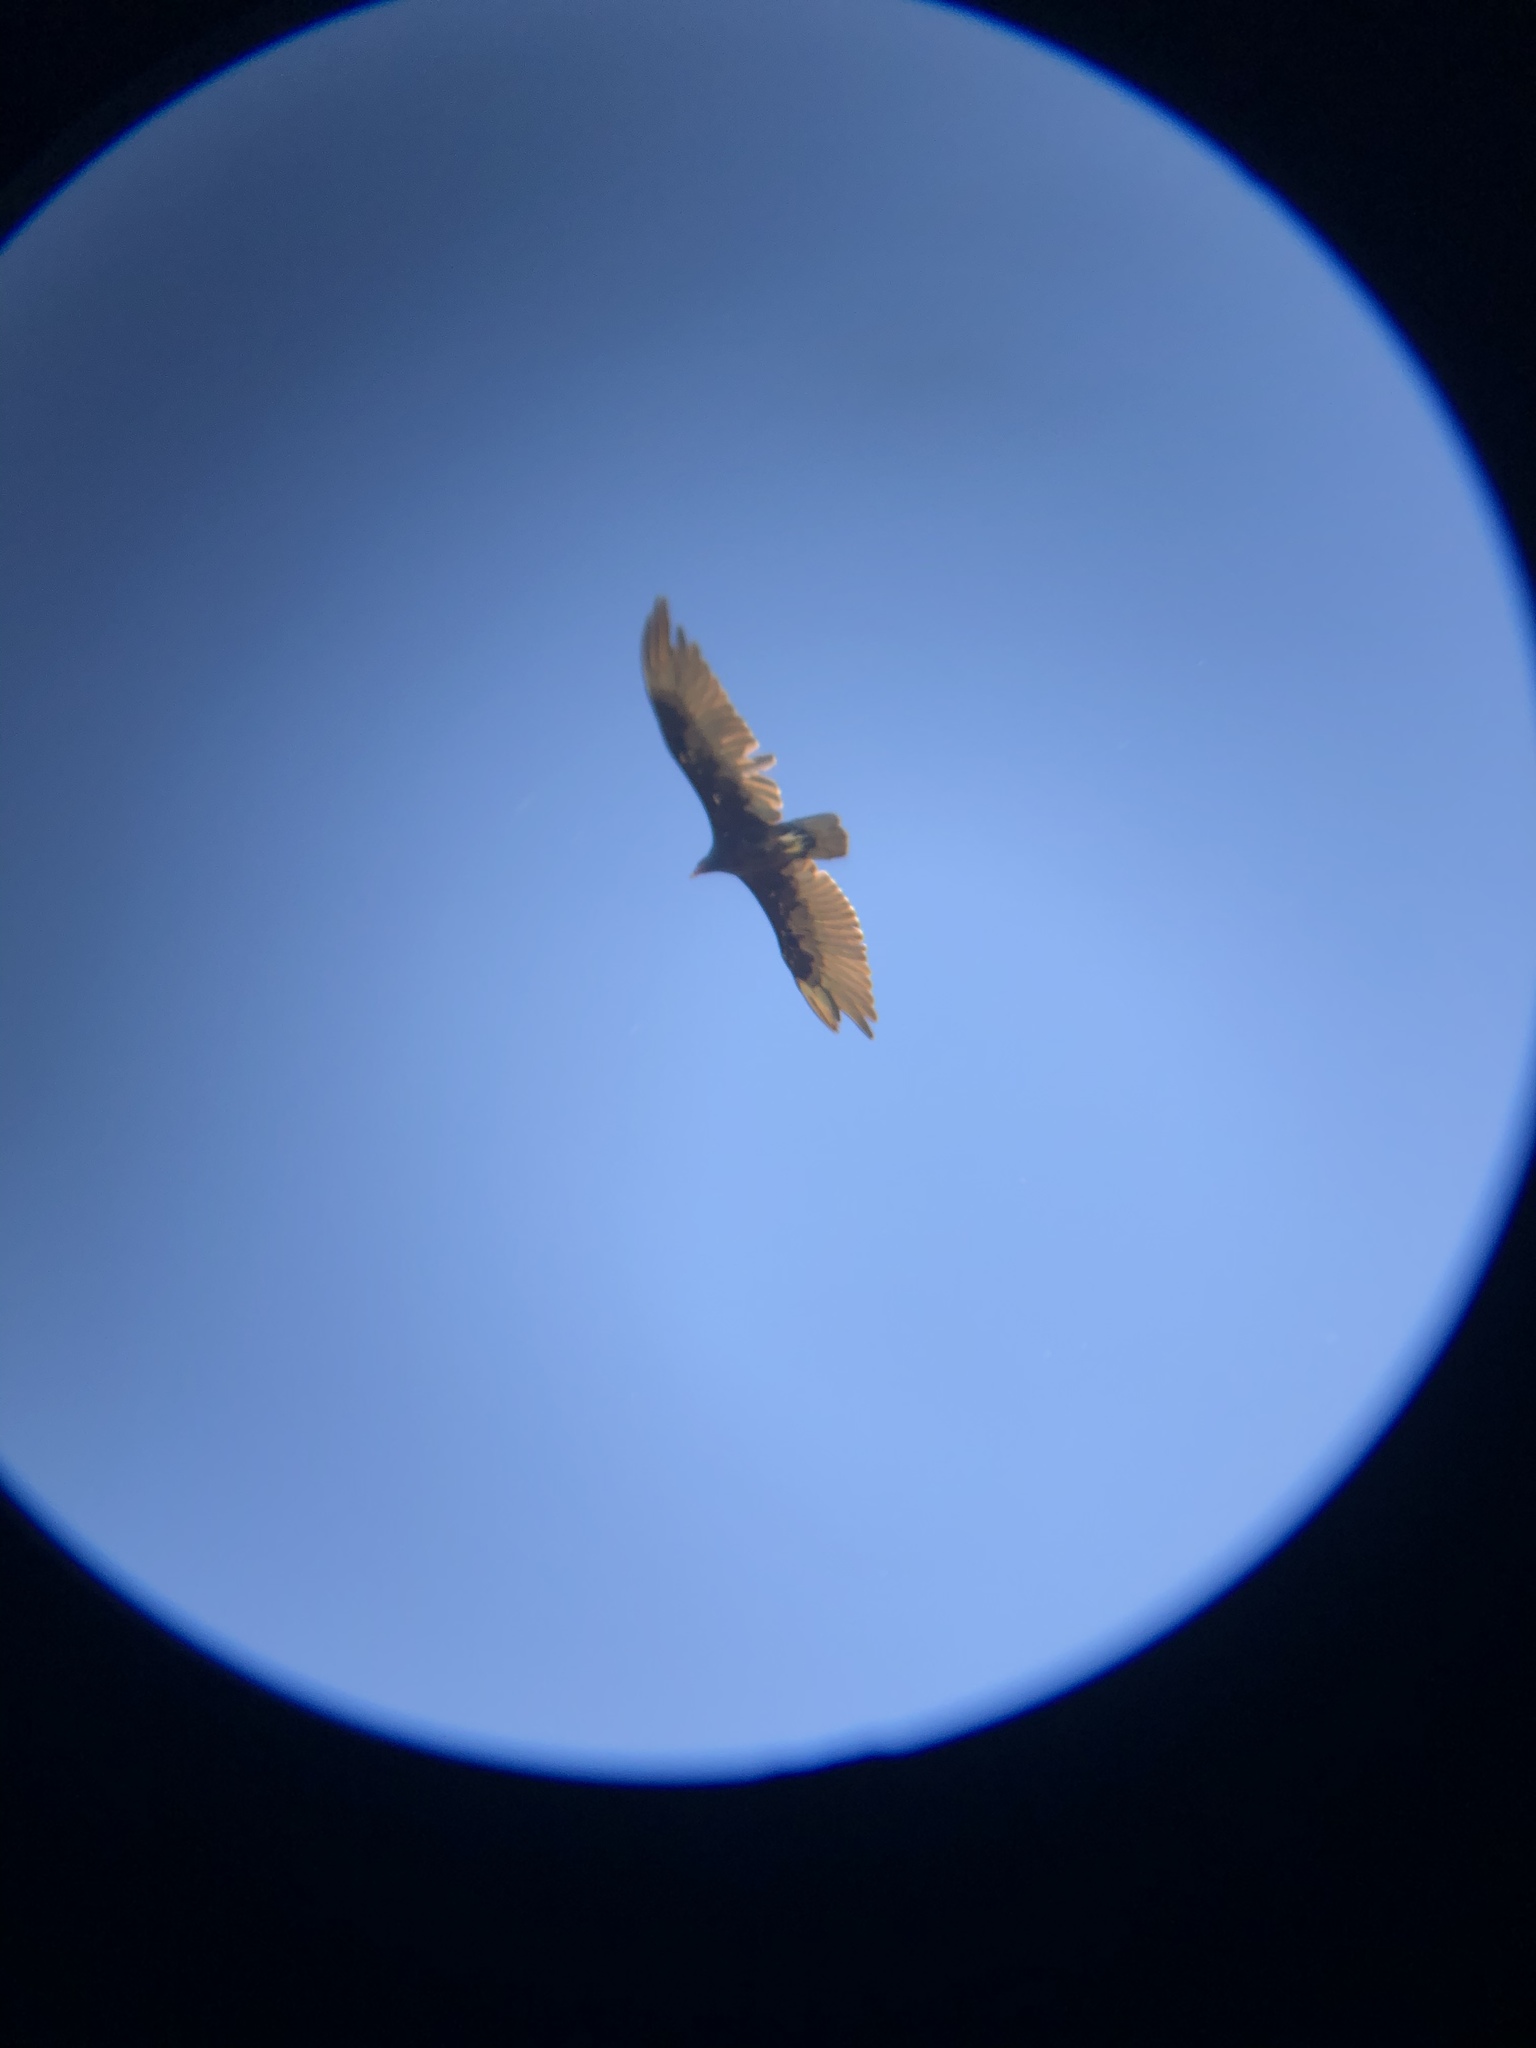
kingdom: Animalia
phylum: Chordata
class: Aves
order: Accipitriformes
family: Cathartidae
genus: Cathartes
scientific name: Cathartes aura
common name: Turkey vulture
